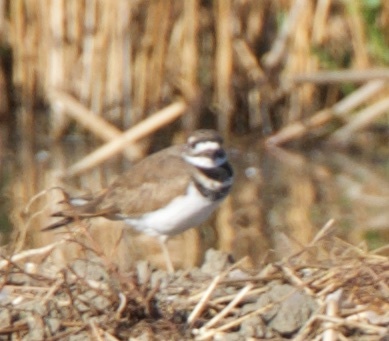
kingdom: Animalia
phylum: Chordata
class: Aves
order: Charadriiformes
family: Charadriidae
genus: Charadrius
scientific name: Charadrius vociferus
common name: Killdeer
